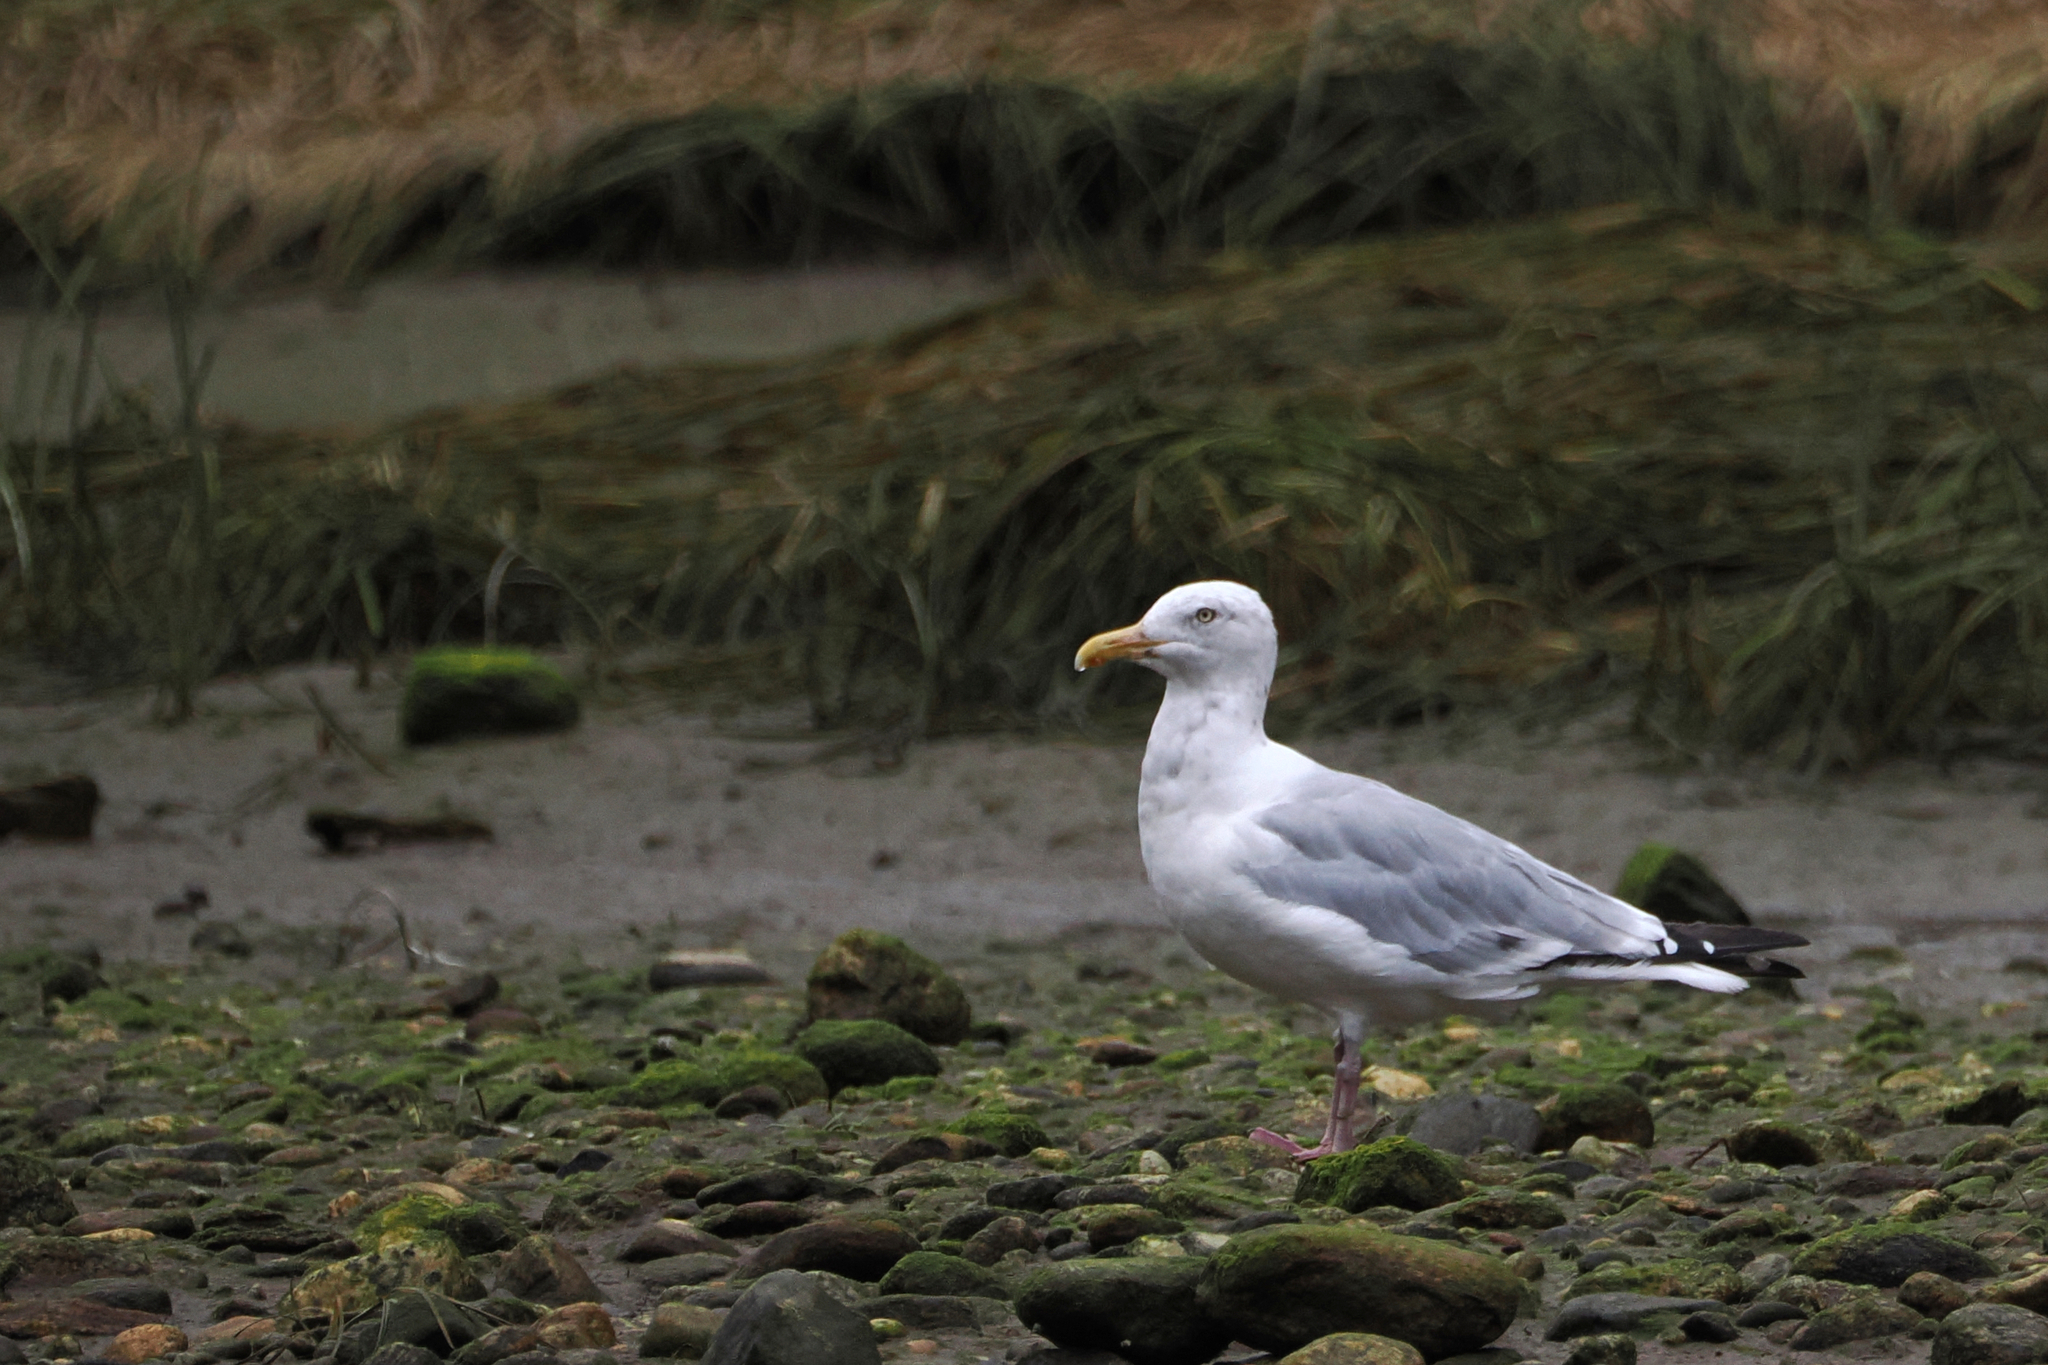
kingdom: Animalia
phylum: Chordata
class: Aves
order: Charadriiformes
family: Laridae
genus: Larus
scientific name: Larus argentatus
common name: Herring gull
